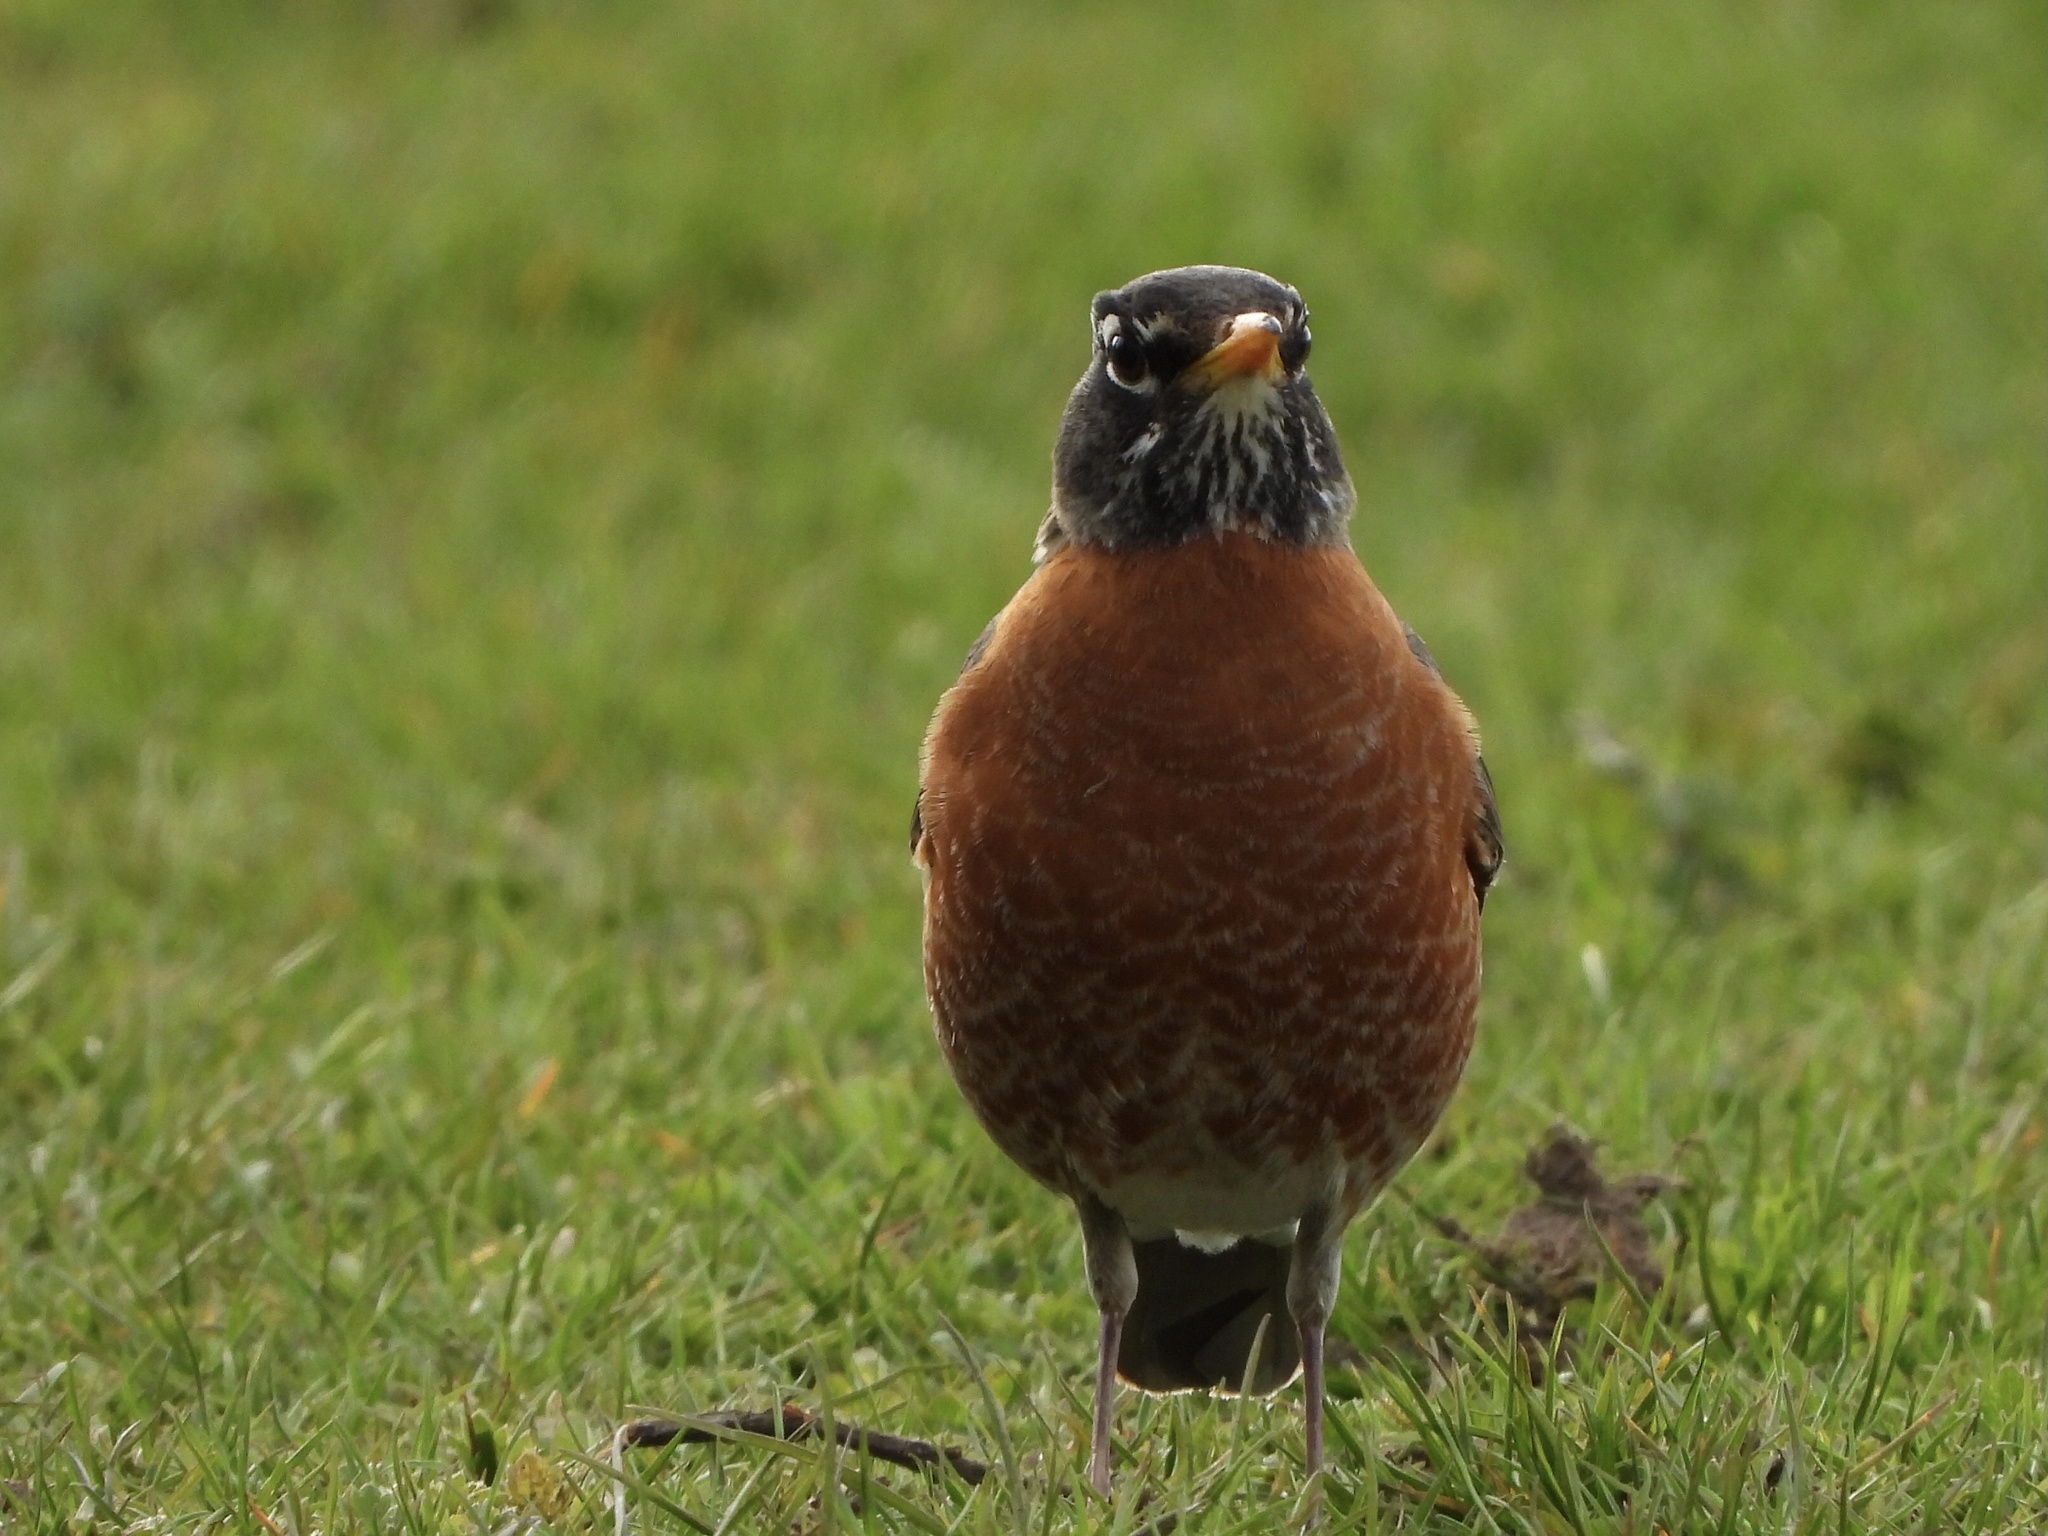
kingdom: Animalia
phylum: Chordata
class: Aves
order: Passeriformes
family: Turdidae
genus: Turdus
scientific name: Turdus migratorius
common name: American robin
